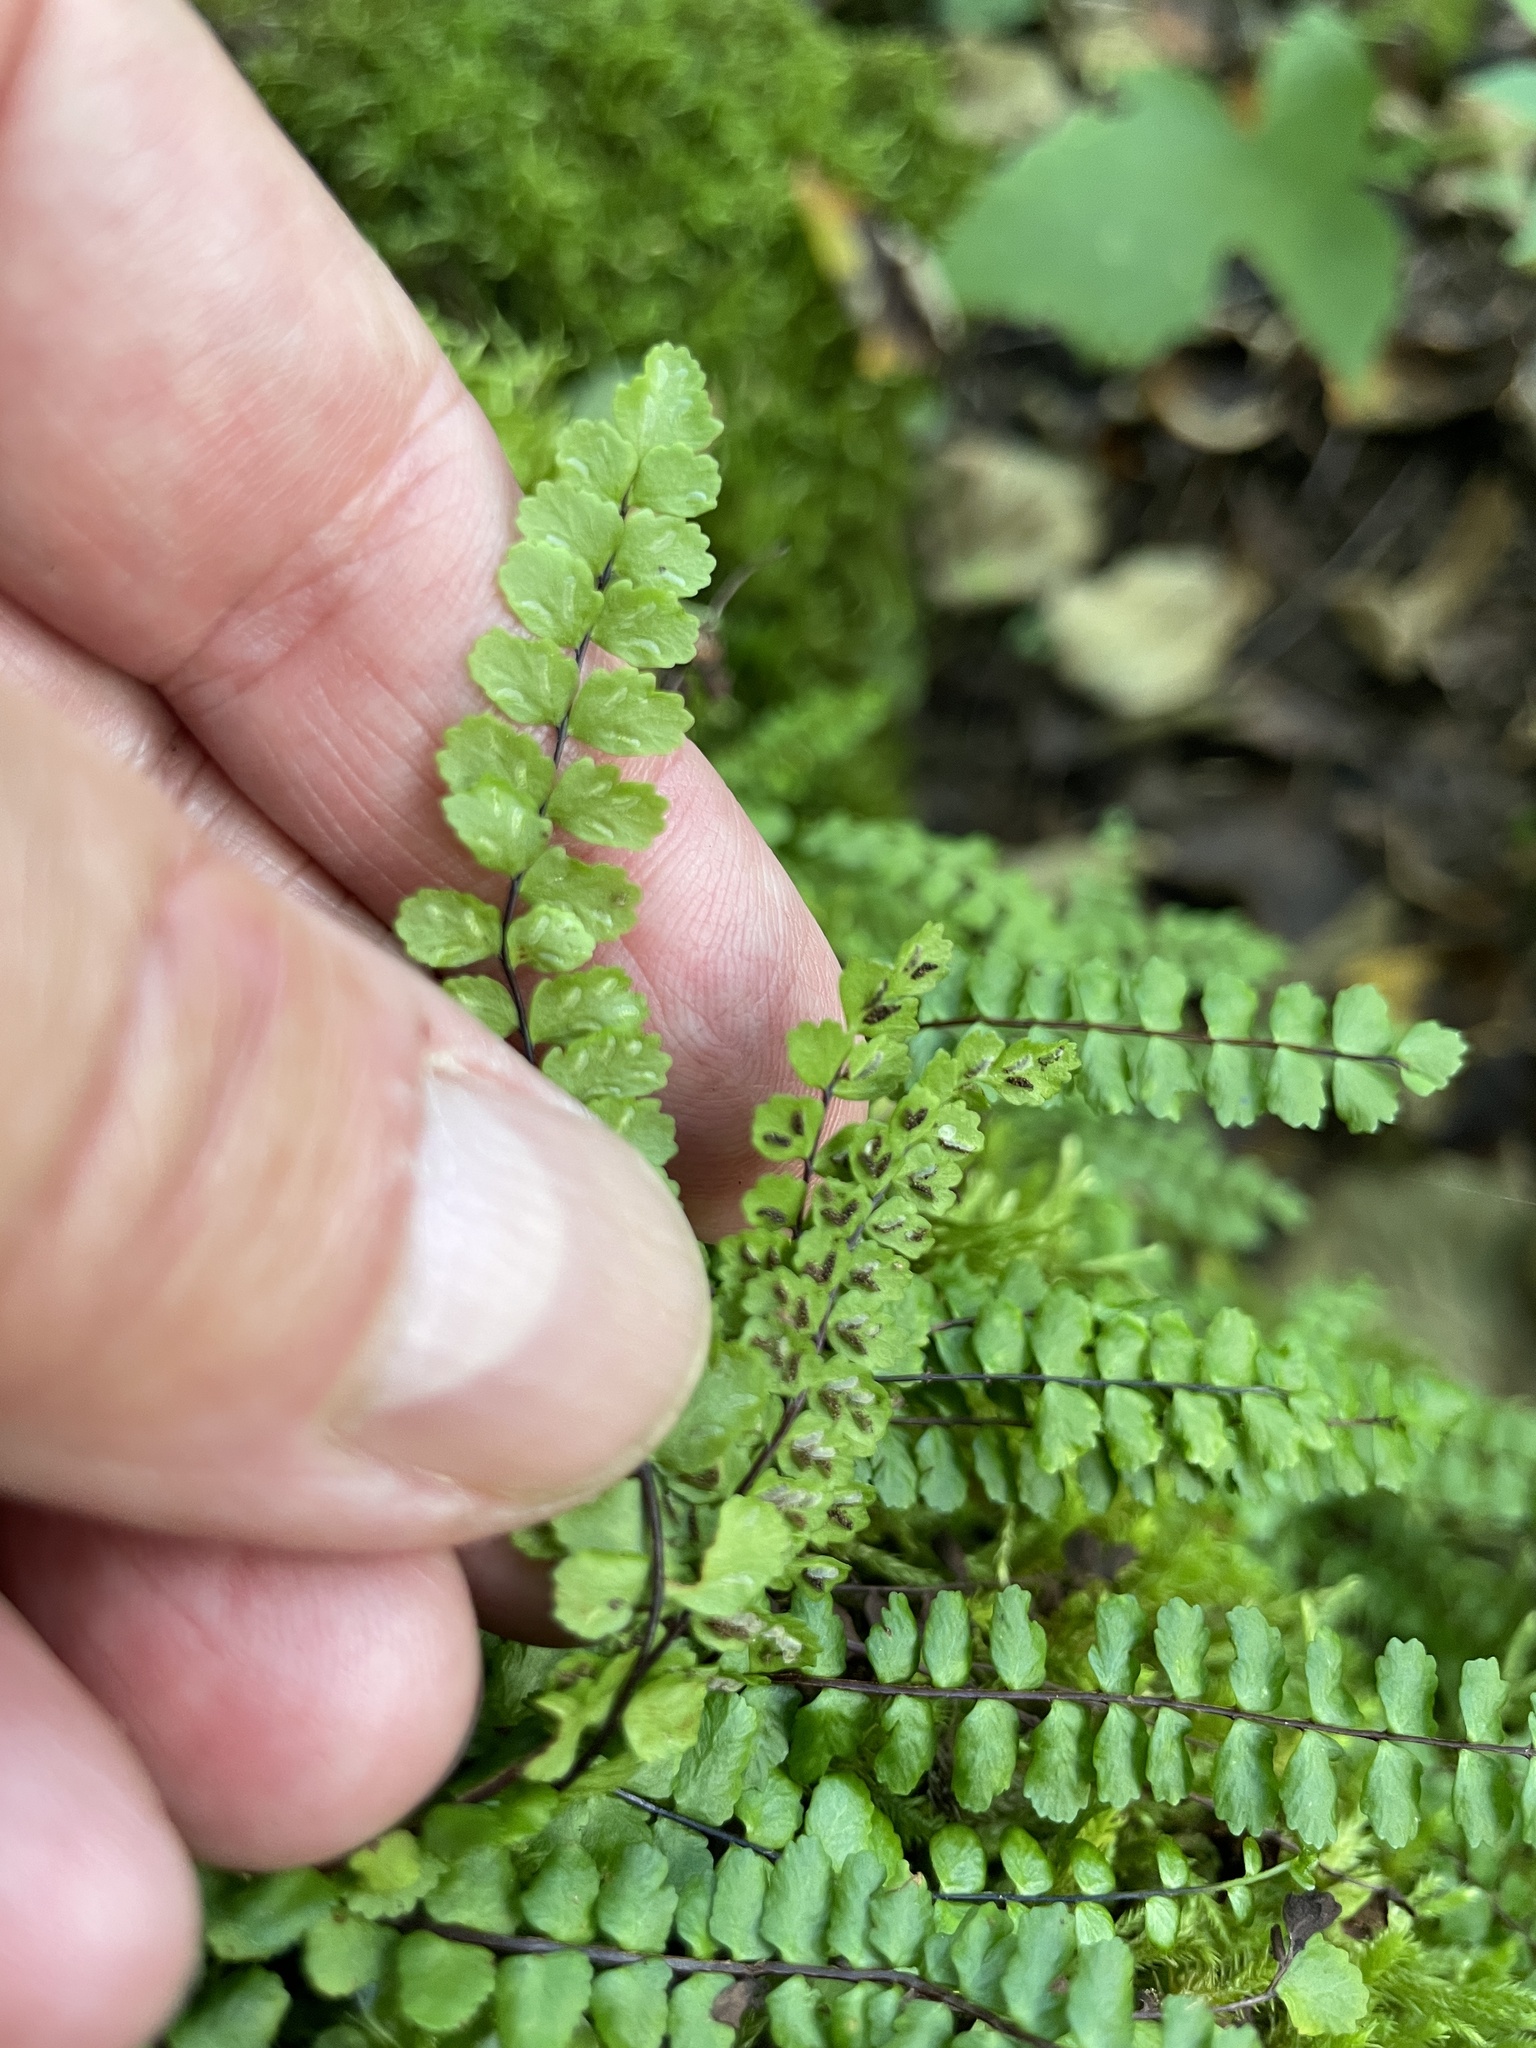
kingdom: Plantae
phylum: Tracheophyta
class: Polypodiopsida
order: Polypodiales
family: Aspleniaceae
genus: Asplenium
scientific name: Asplenium trichomanes
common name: Maidenhair spleenwort
